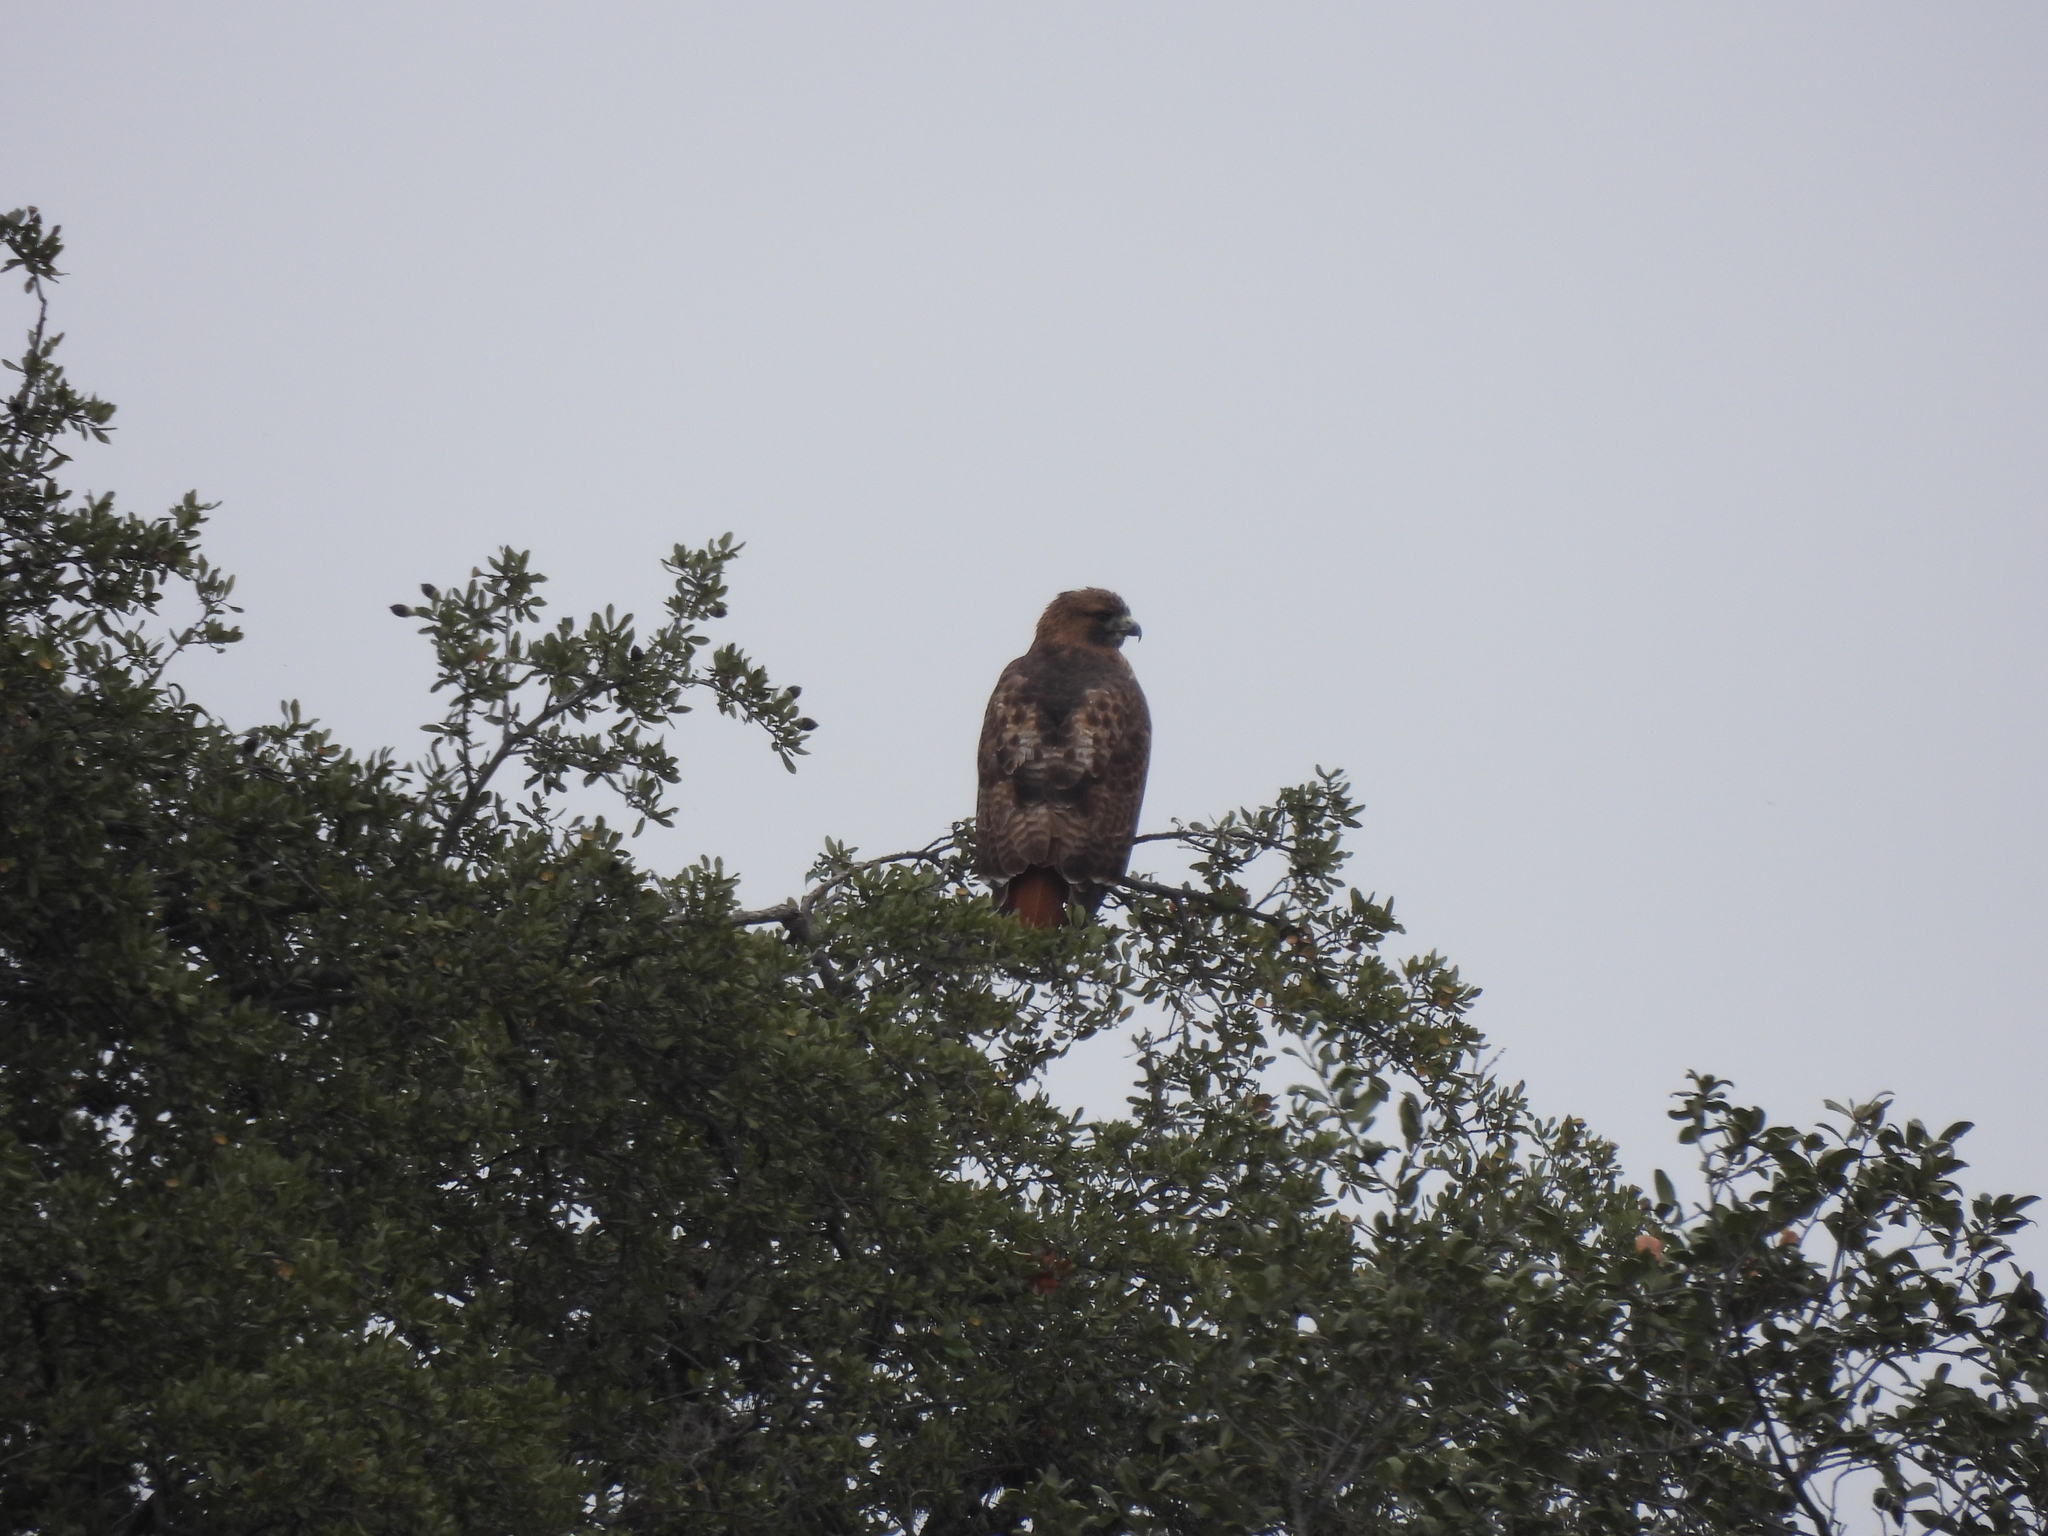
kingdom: Animalia
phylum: Chordata
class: Aves
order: Accipitriformes
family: Accipitridae
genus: Buteo
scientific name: Buteo jamaicensis
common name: Red-tailed hawk
